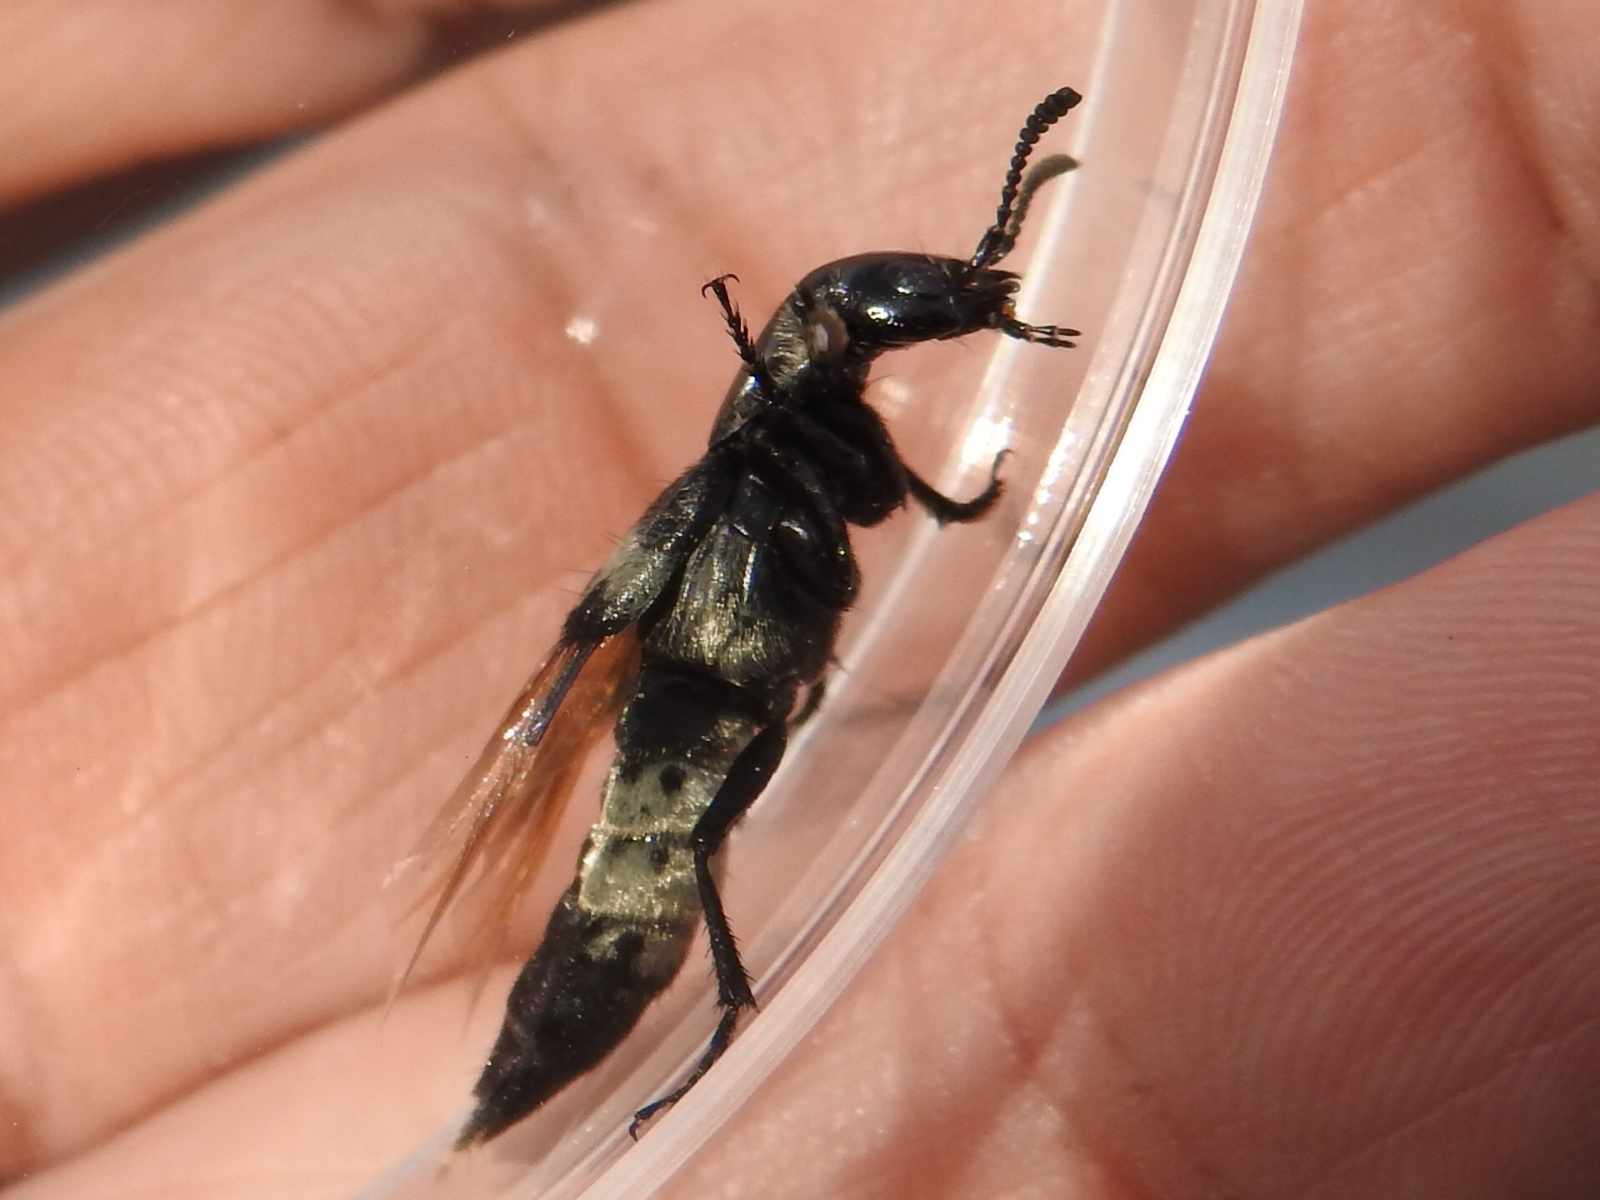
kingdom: Animalia
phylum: Arthropoda
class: Insecta
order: Coleoptera
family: Staphylinidae
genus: Creophilus
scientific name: Creophilus maxillosus
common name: Hairy rove beetle
